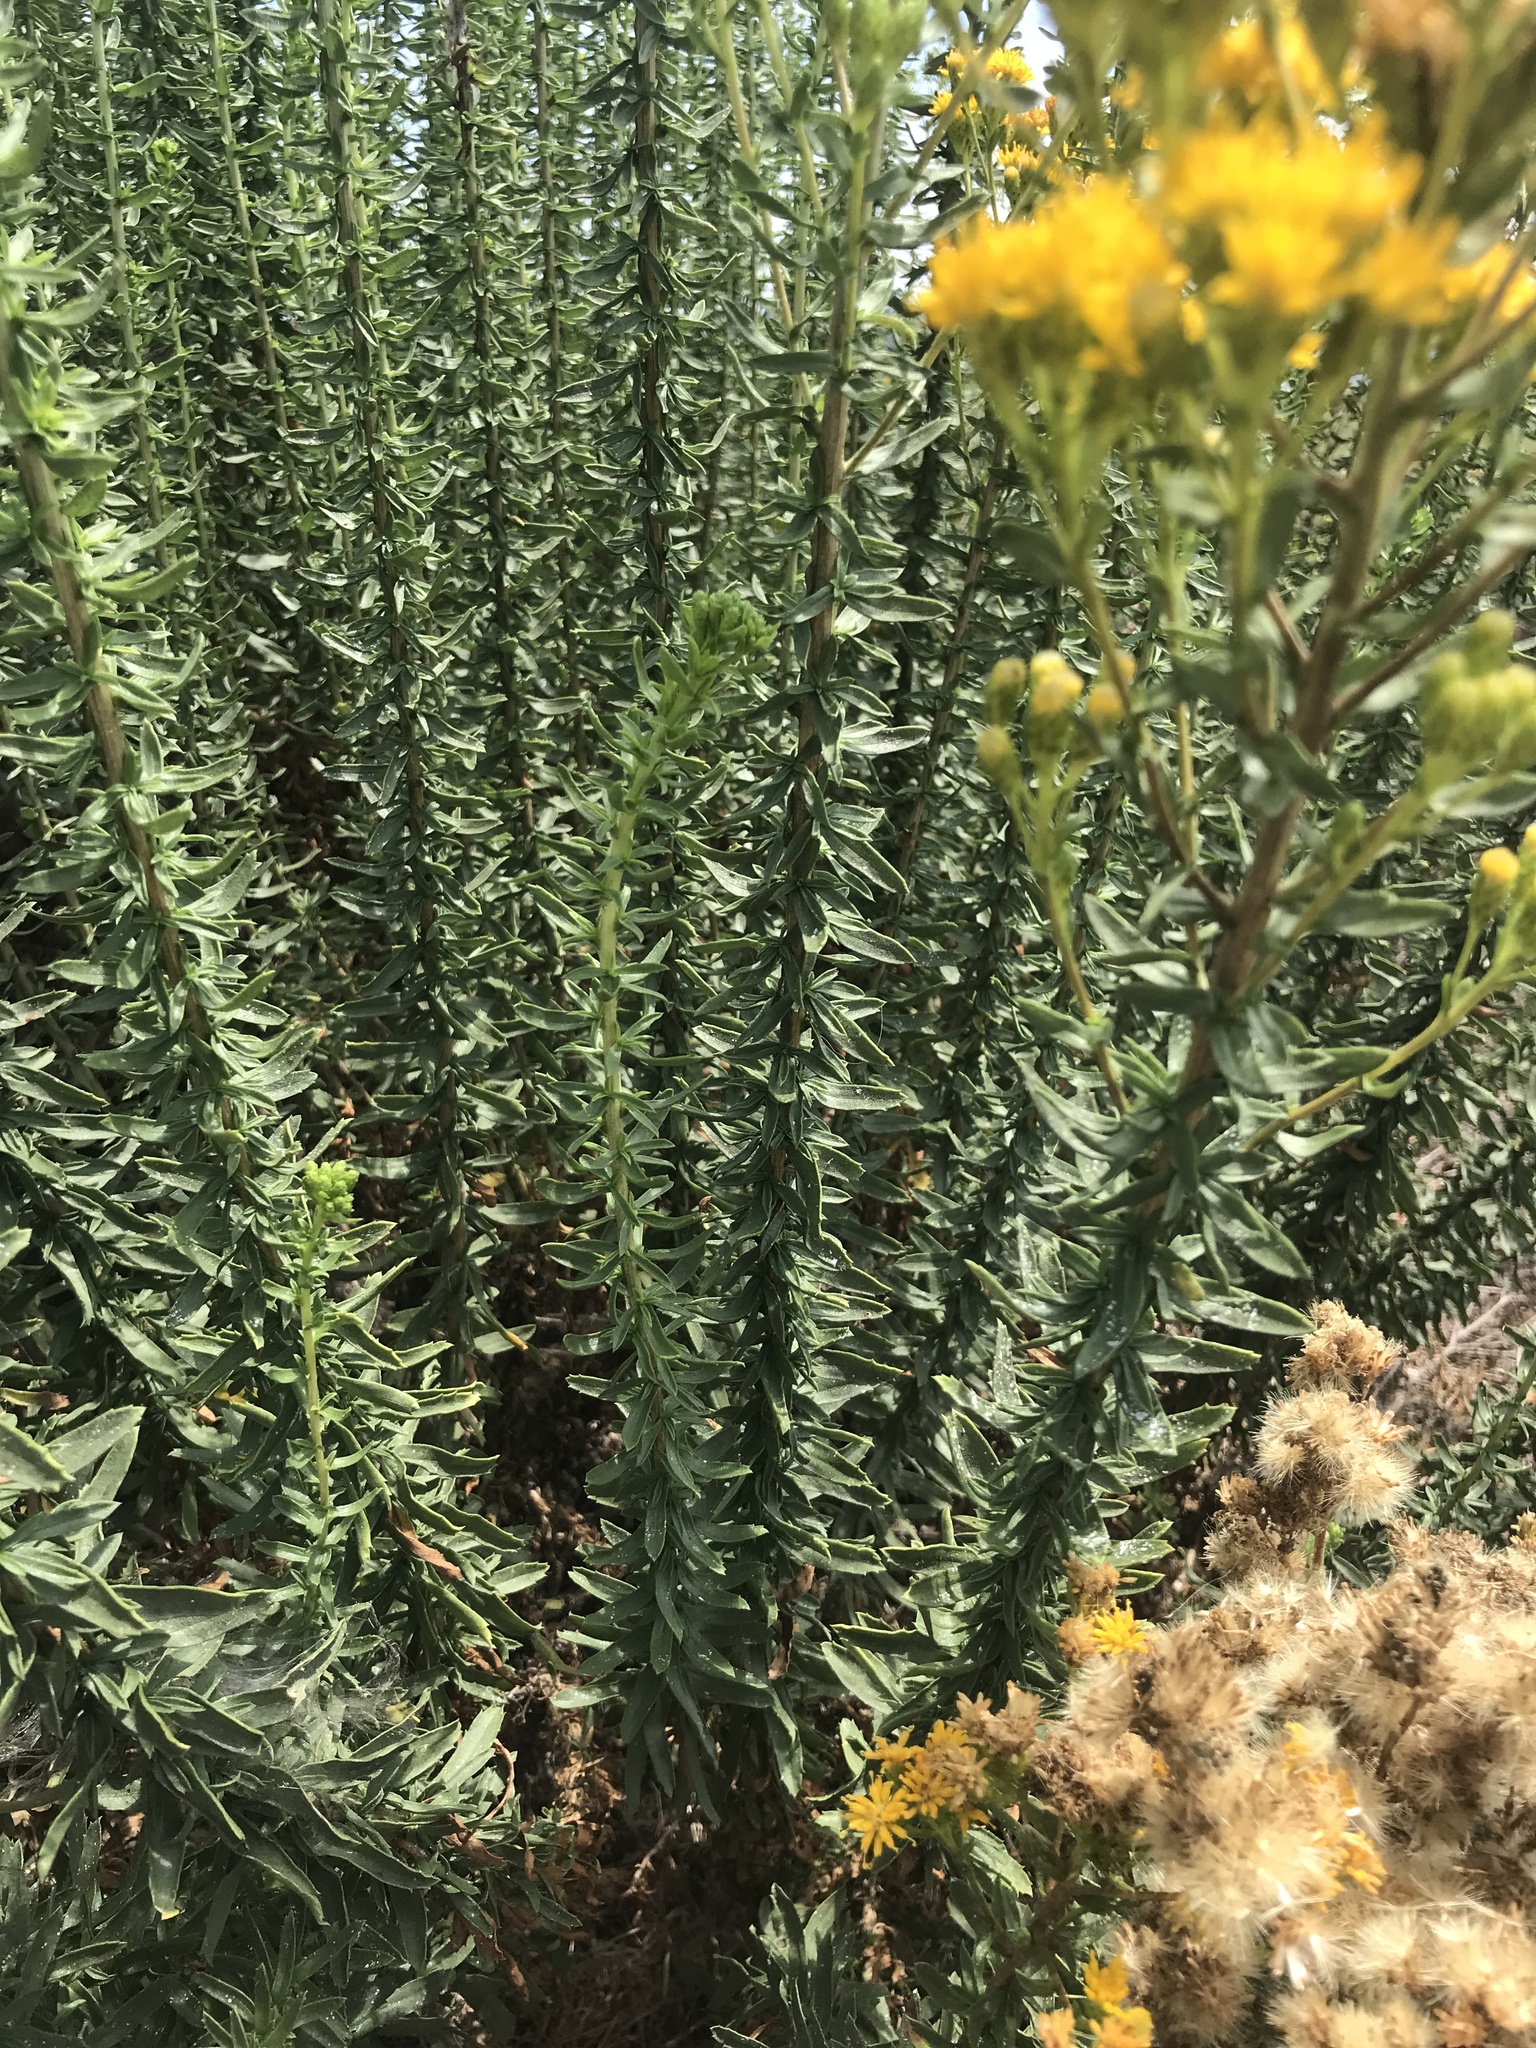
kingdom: Plantae
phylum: Tracheophyta
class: Magnoliopsida
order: Asterales
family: Asteraceae
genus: Isocoma
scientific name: Isocoma menziesii
